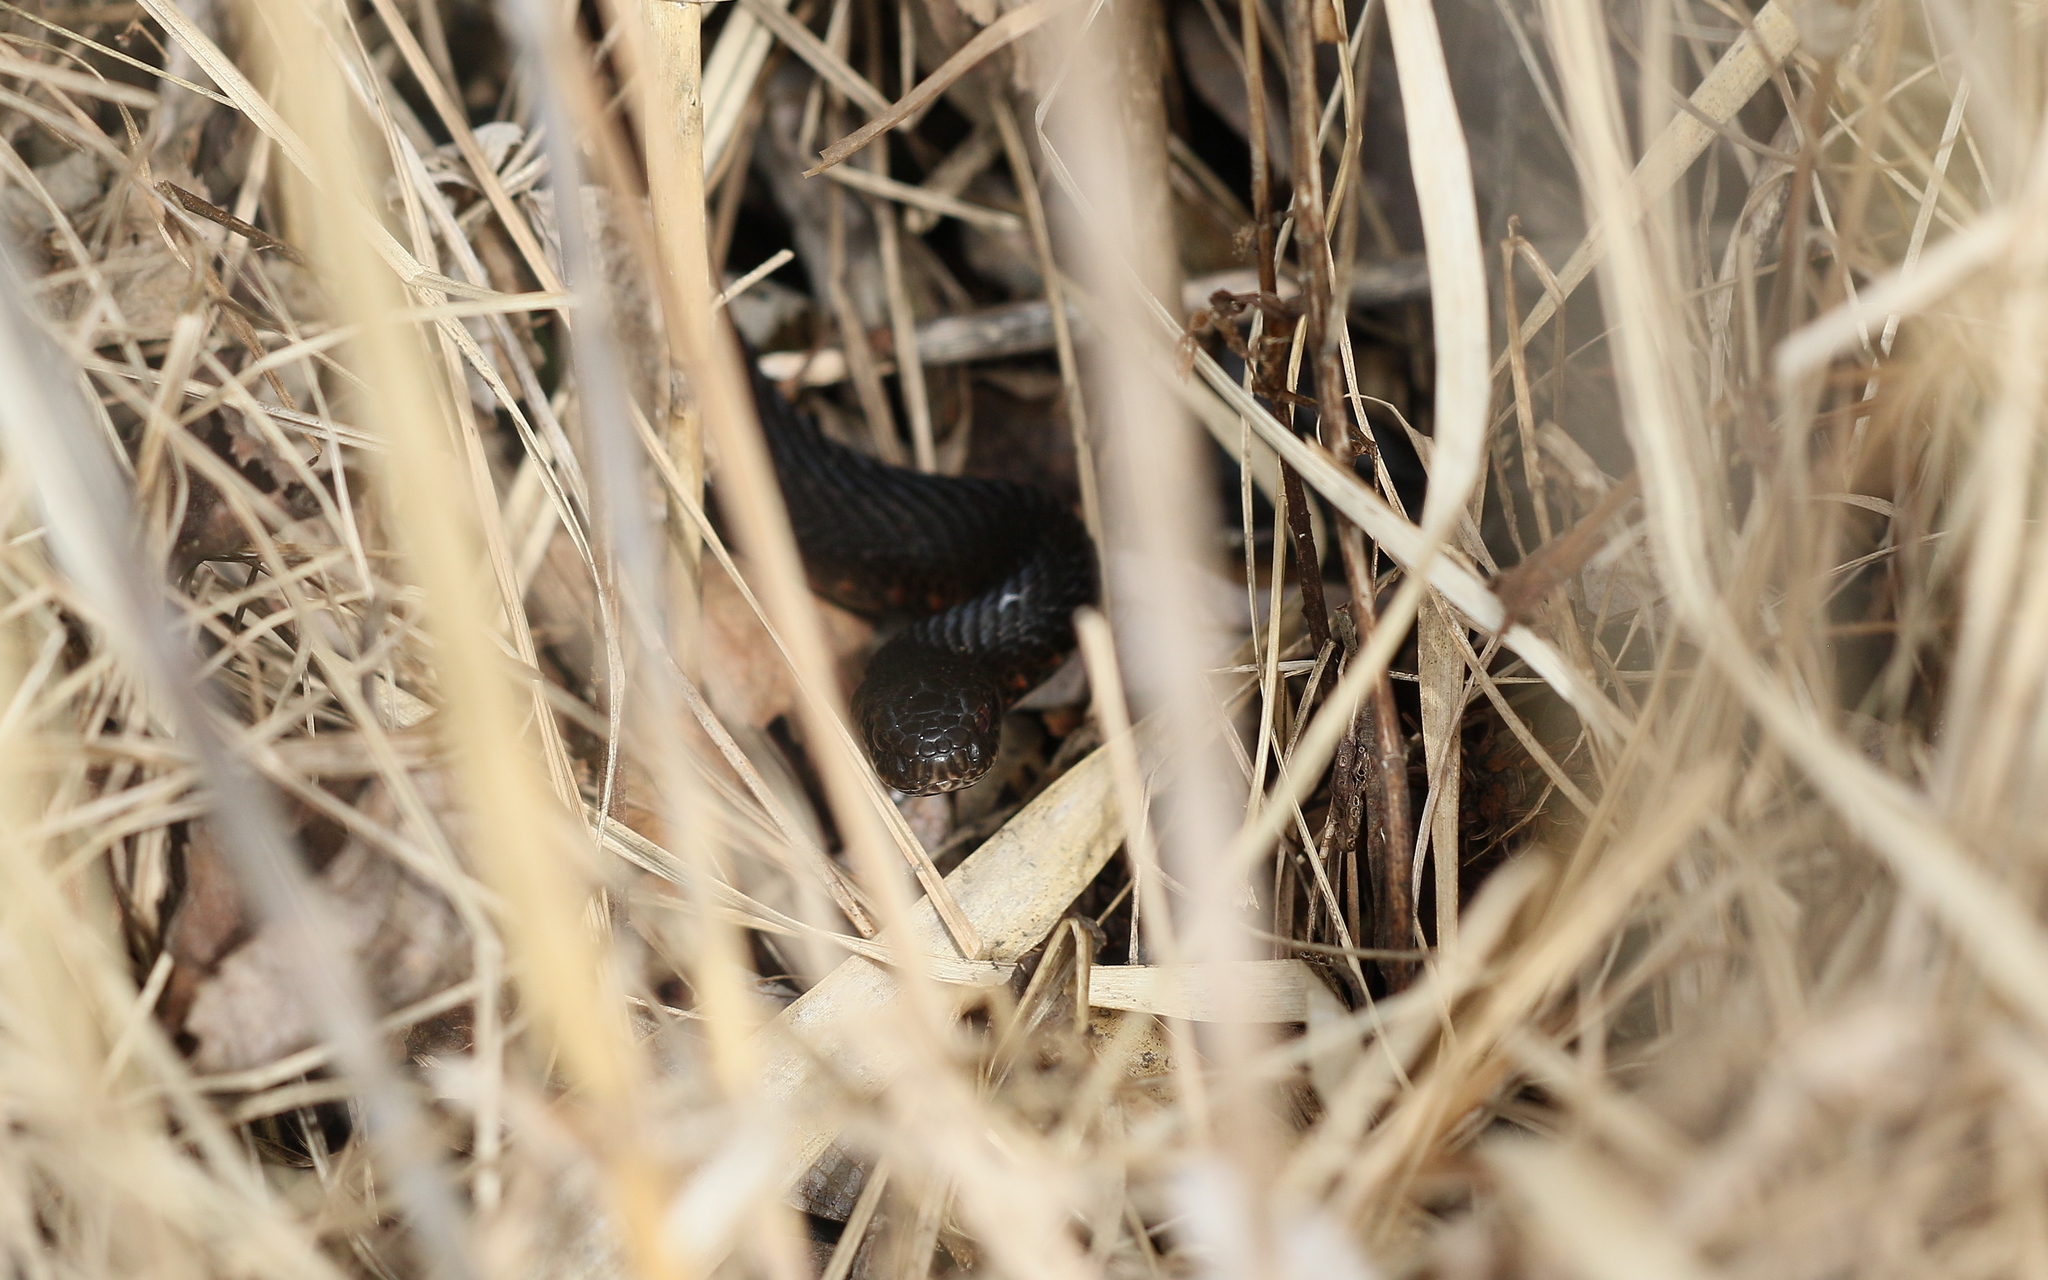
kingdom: Animalia
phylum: Chordata
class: Squamata
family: Viperidae
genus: Vipera
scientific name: Vipera berus
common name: Adder
